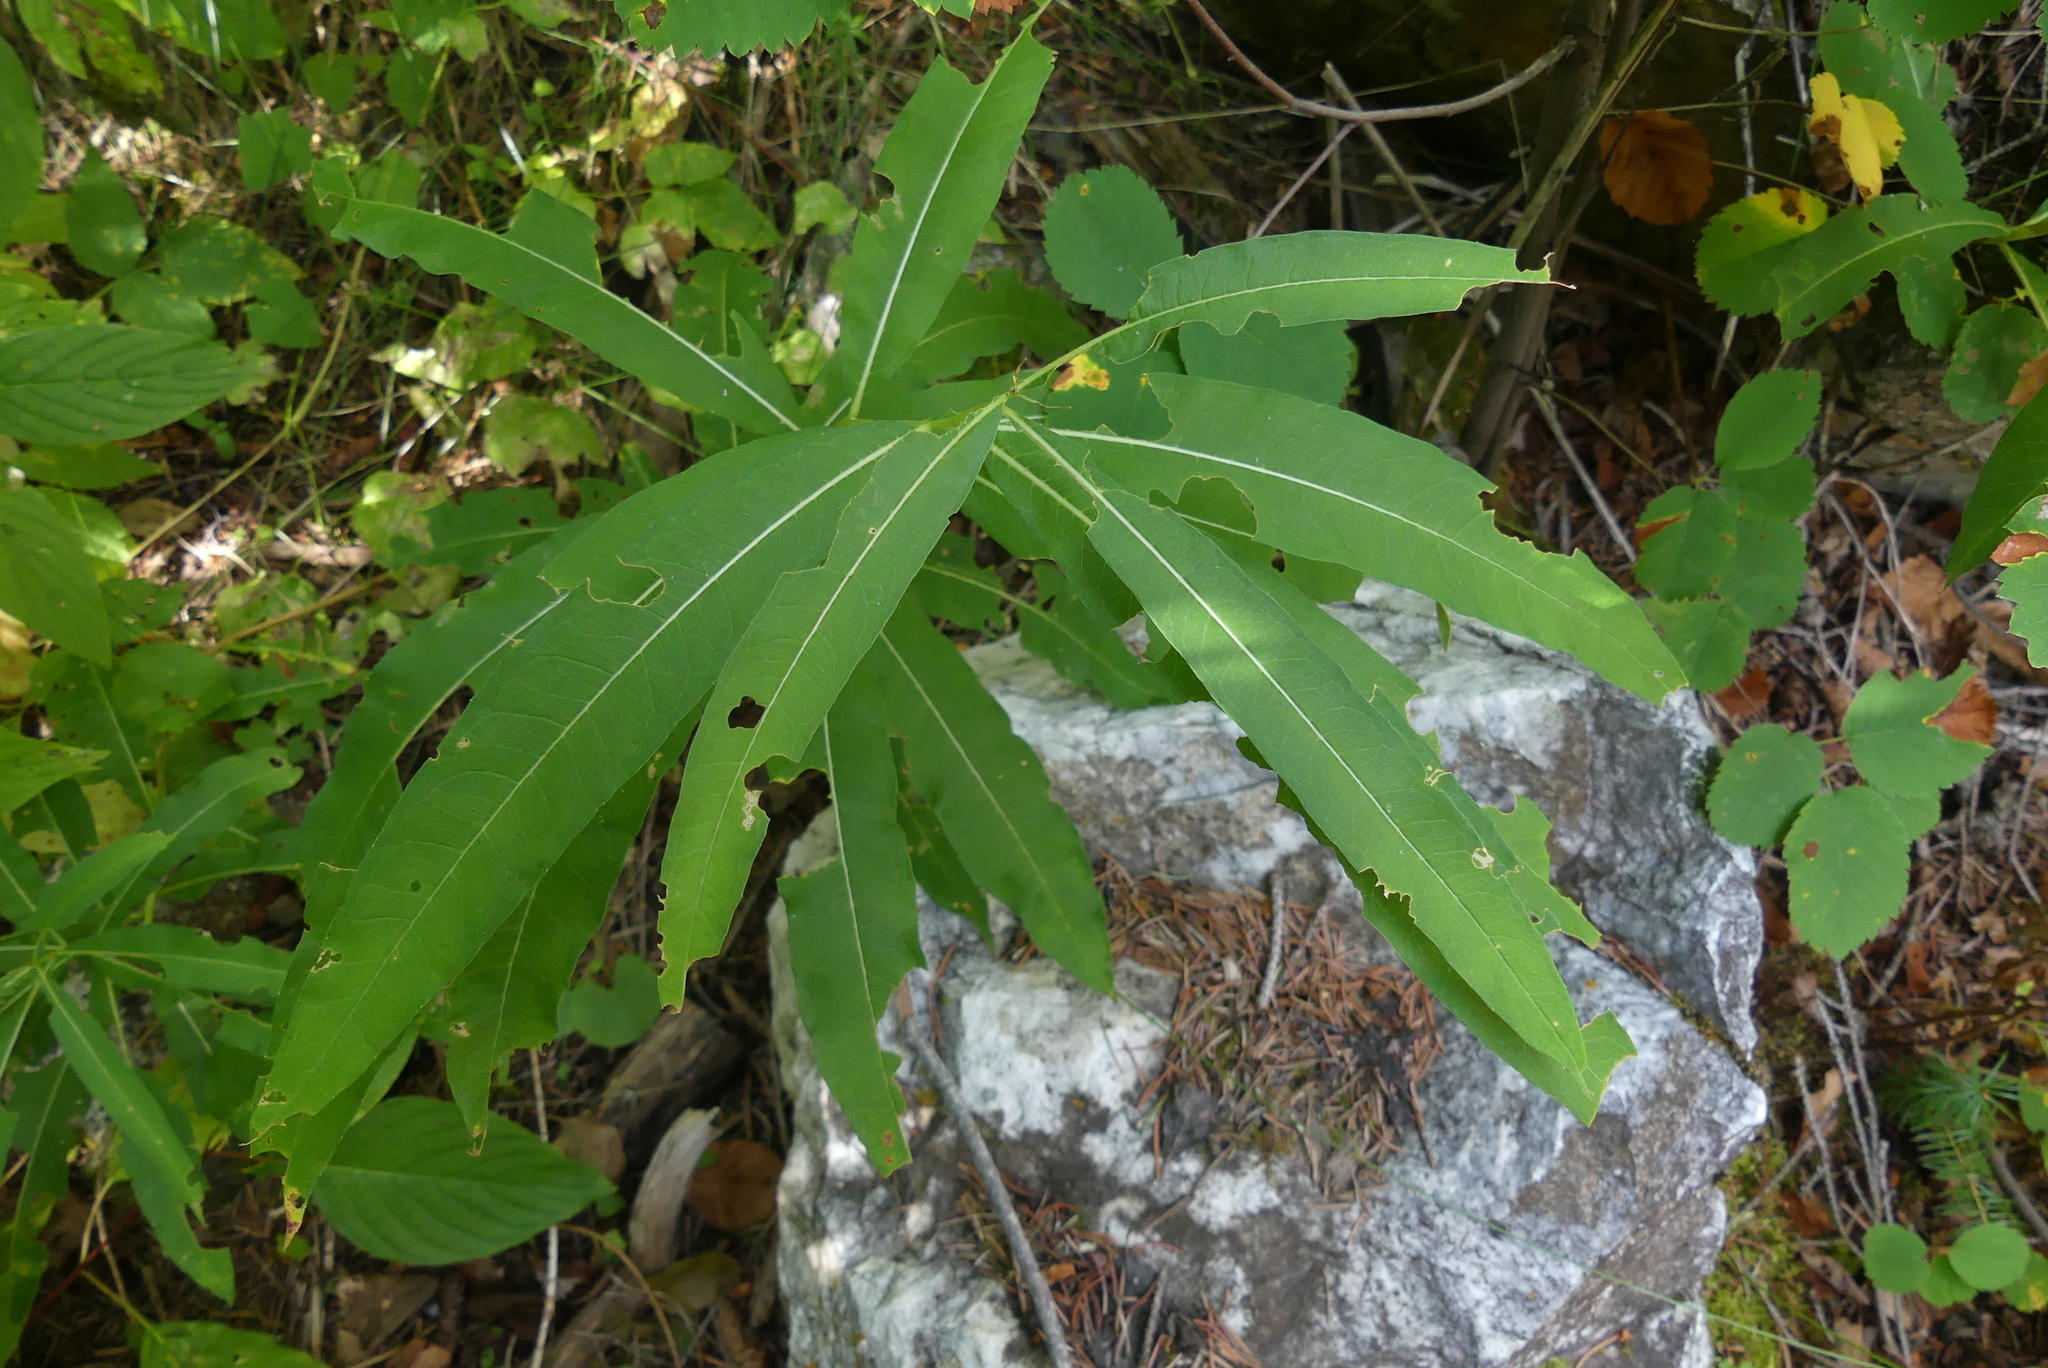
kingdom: Plantae
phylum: Tracheophyta
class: Magnoliopsida
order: Myrtales
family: Onagraceae
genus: Chamaenerion
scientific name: Chamaenerion angustifolium
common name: Fireweed
